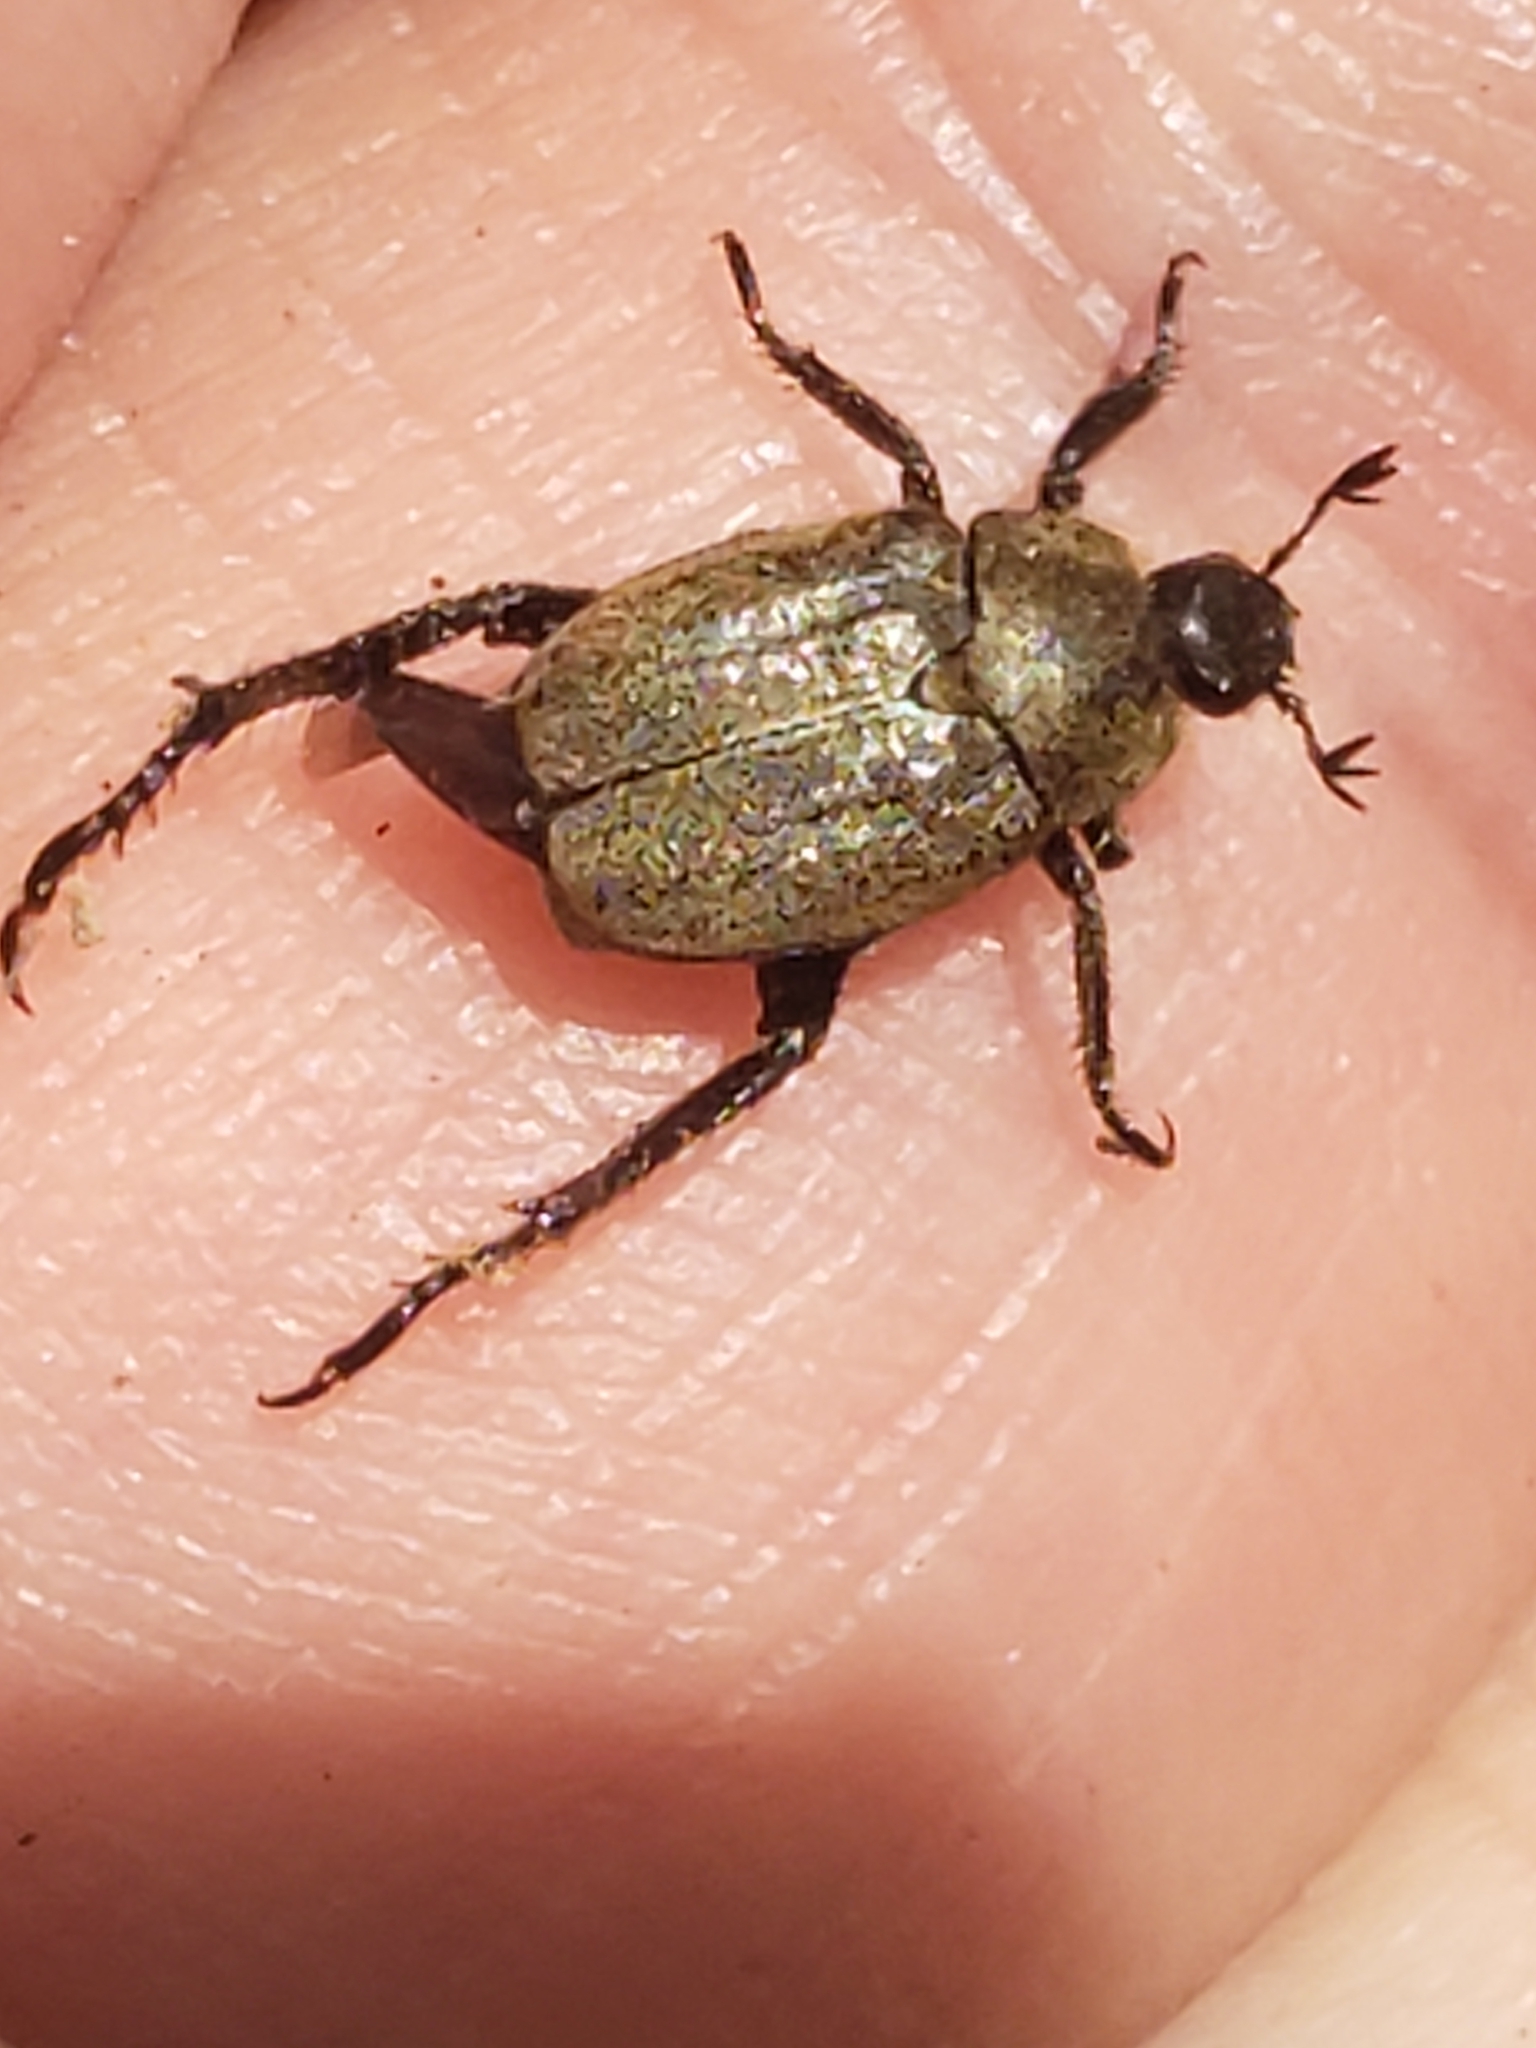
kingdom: Animalia
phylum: Arthropoda
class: Insecta
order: Coleoptera
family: Scarabaeidae
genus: Hoplia
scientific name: Hoplia trivialis
